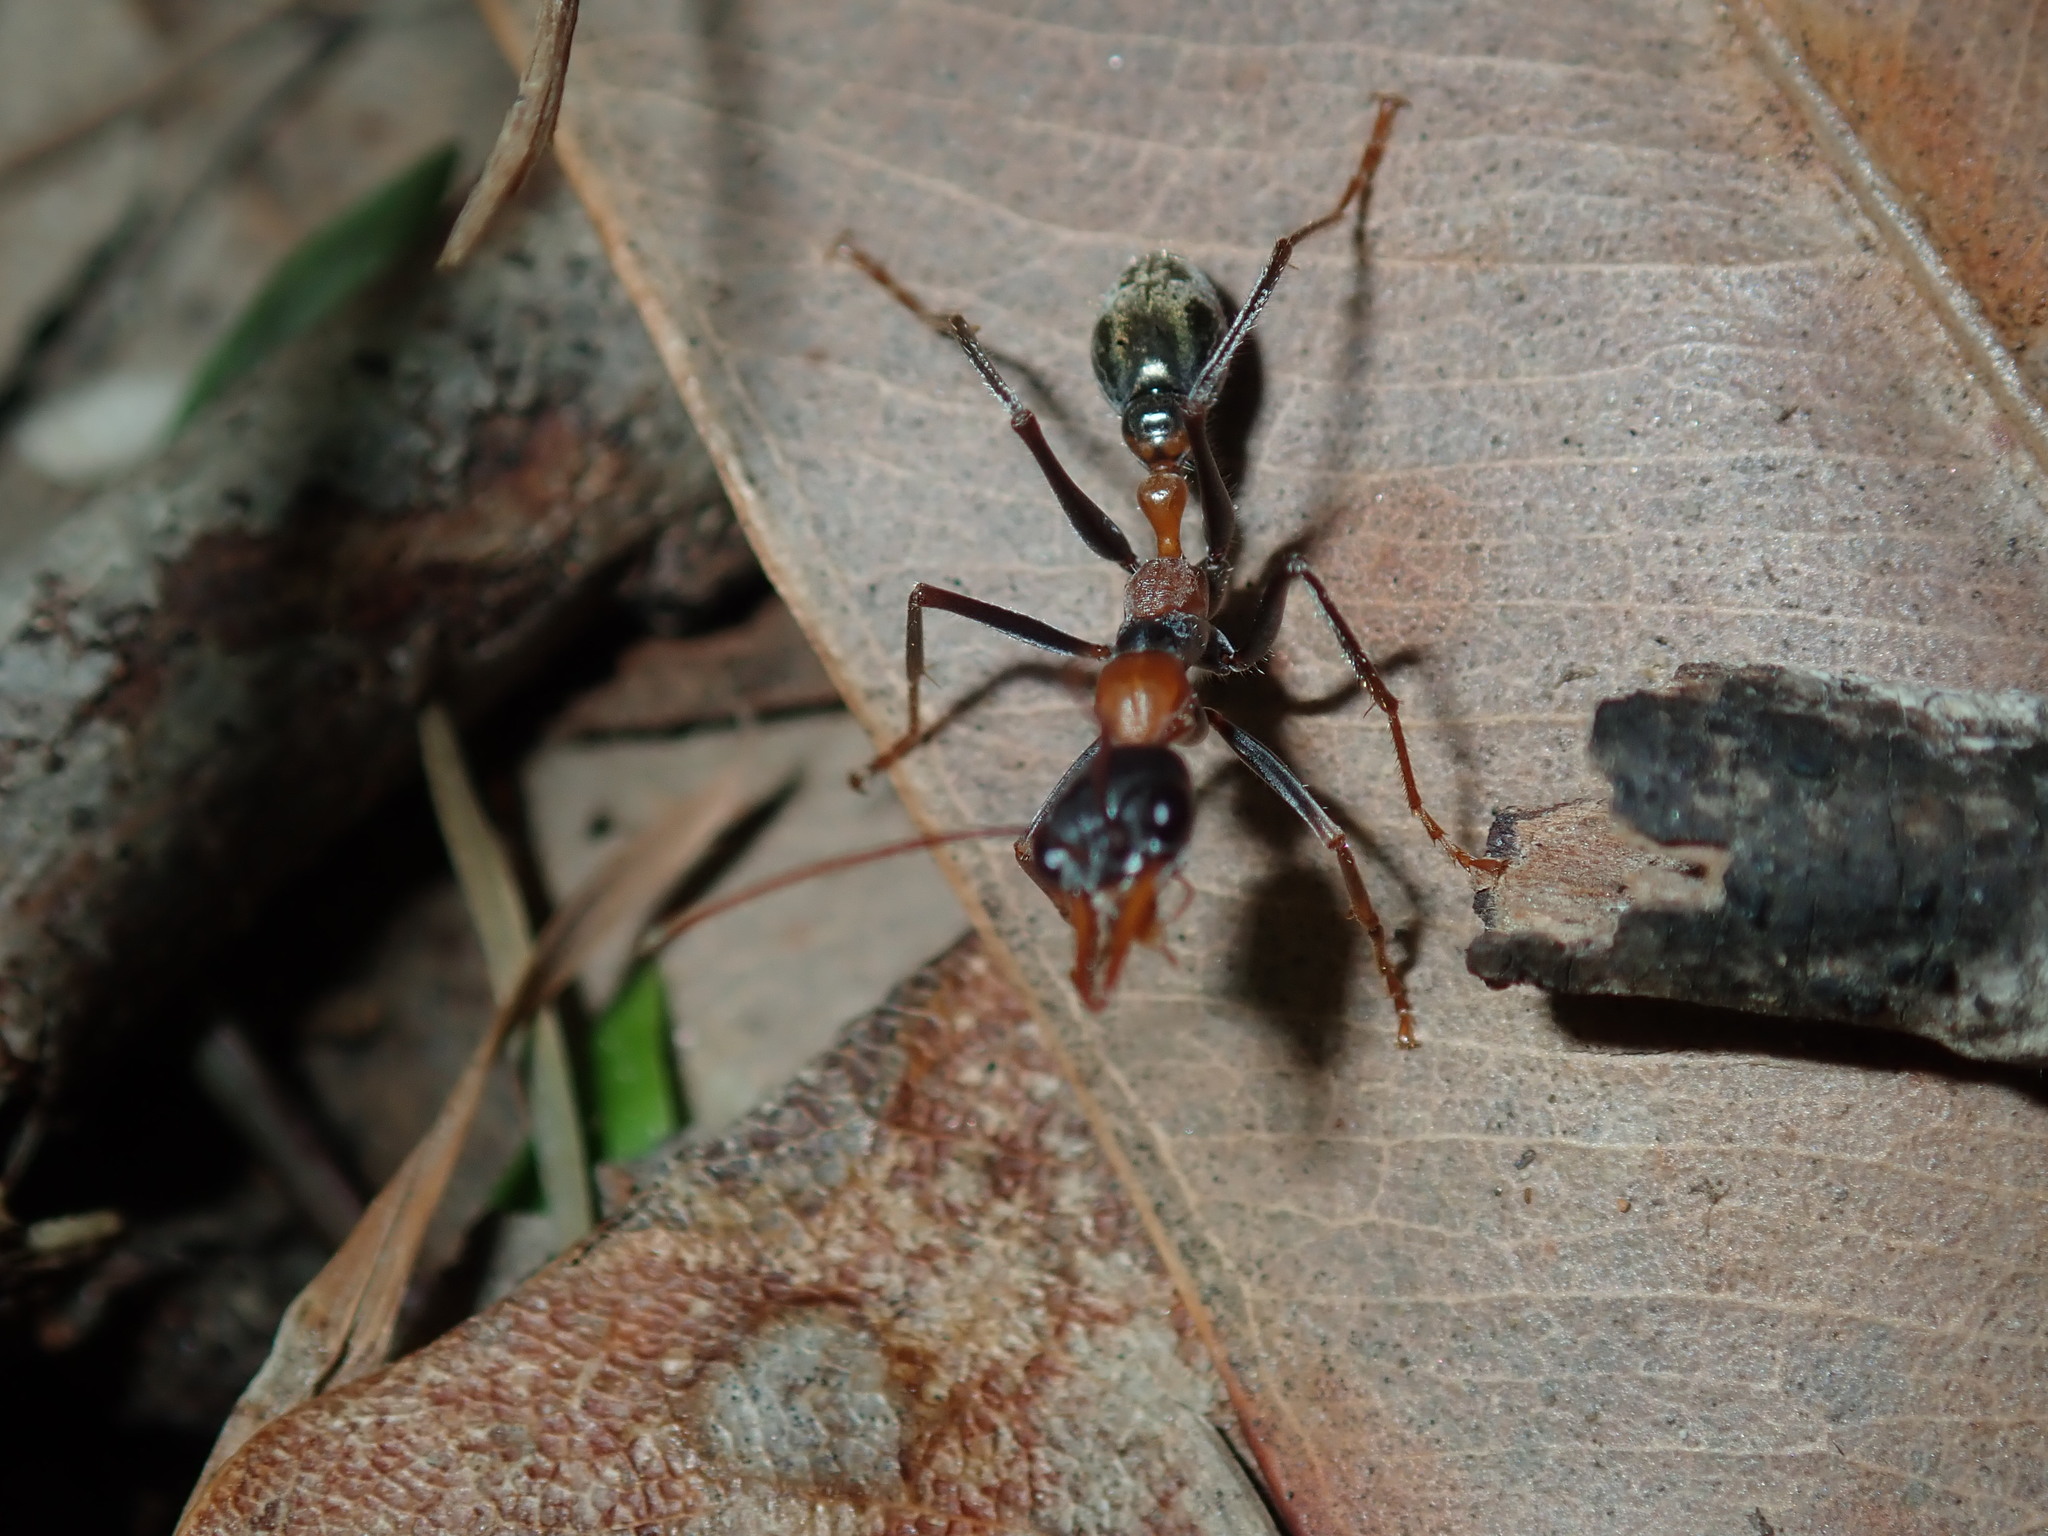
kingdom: Animalia
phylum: Arthropoda
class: Insecta
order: Hymenoptera
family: Formicidae
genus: Myrmecia
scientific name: Myrmecia nigrocincta
